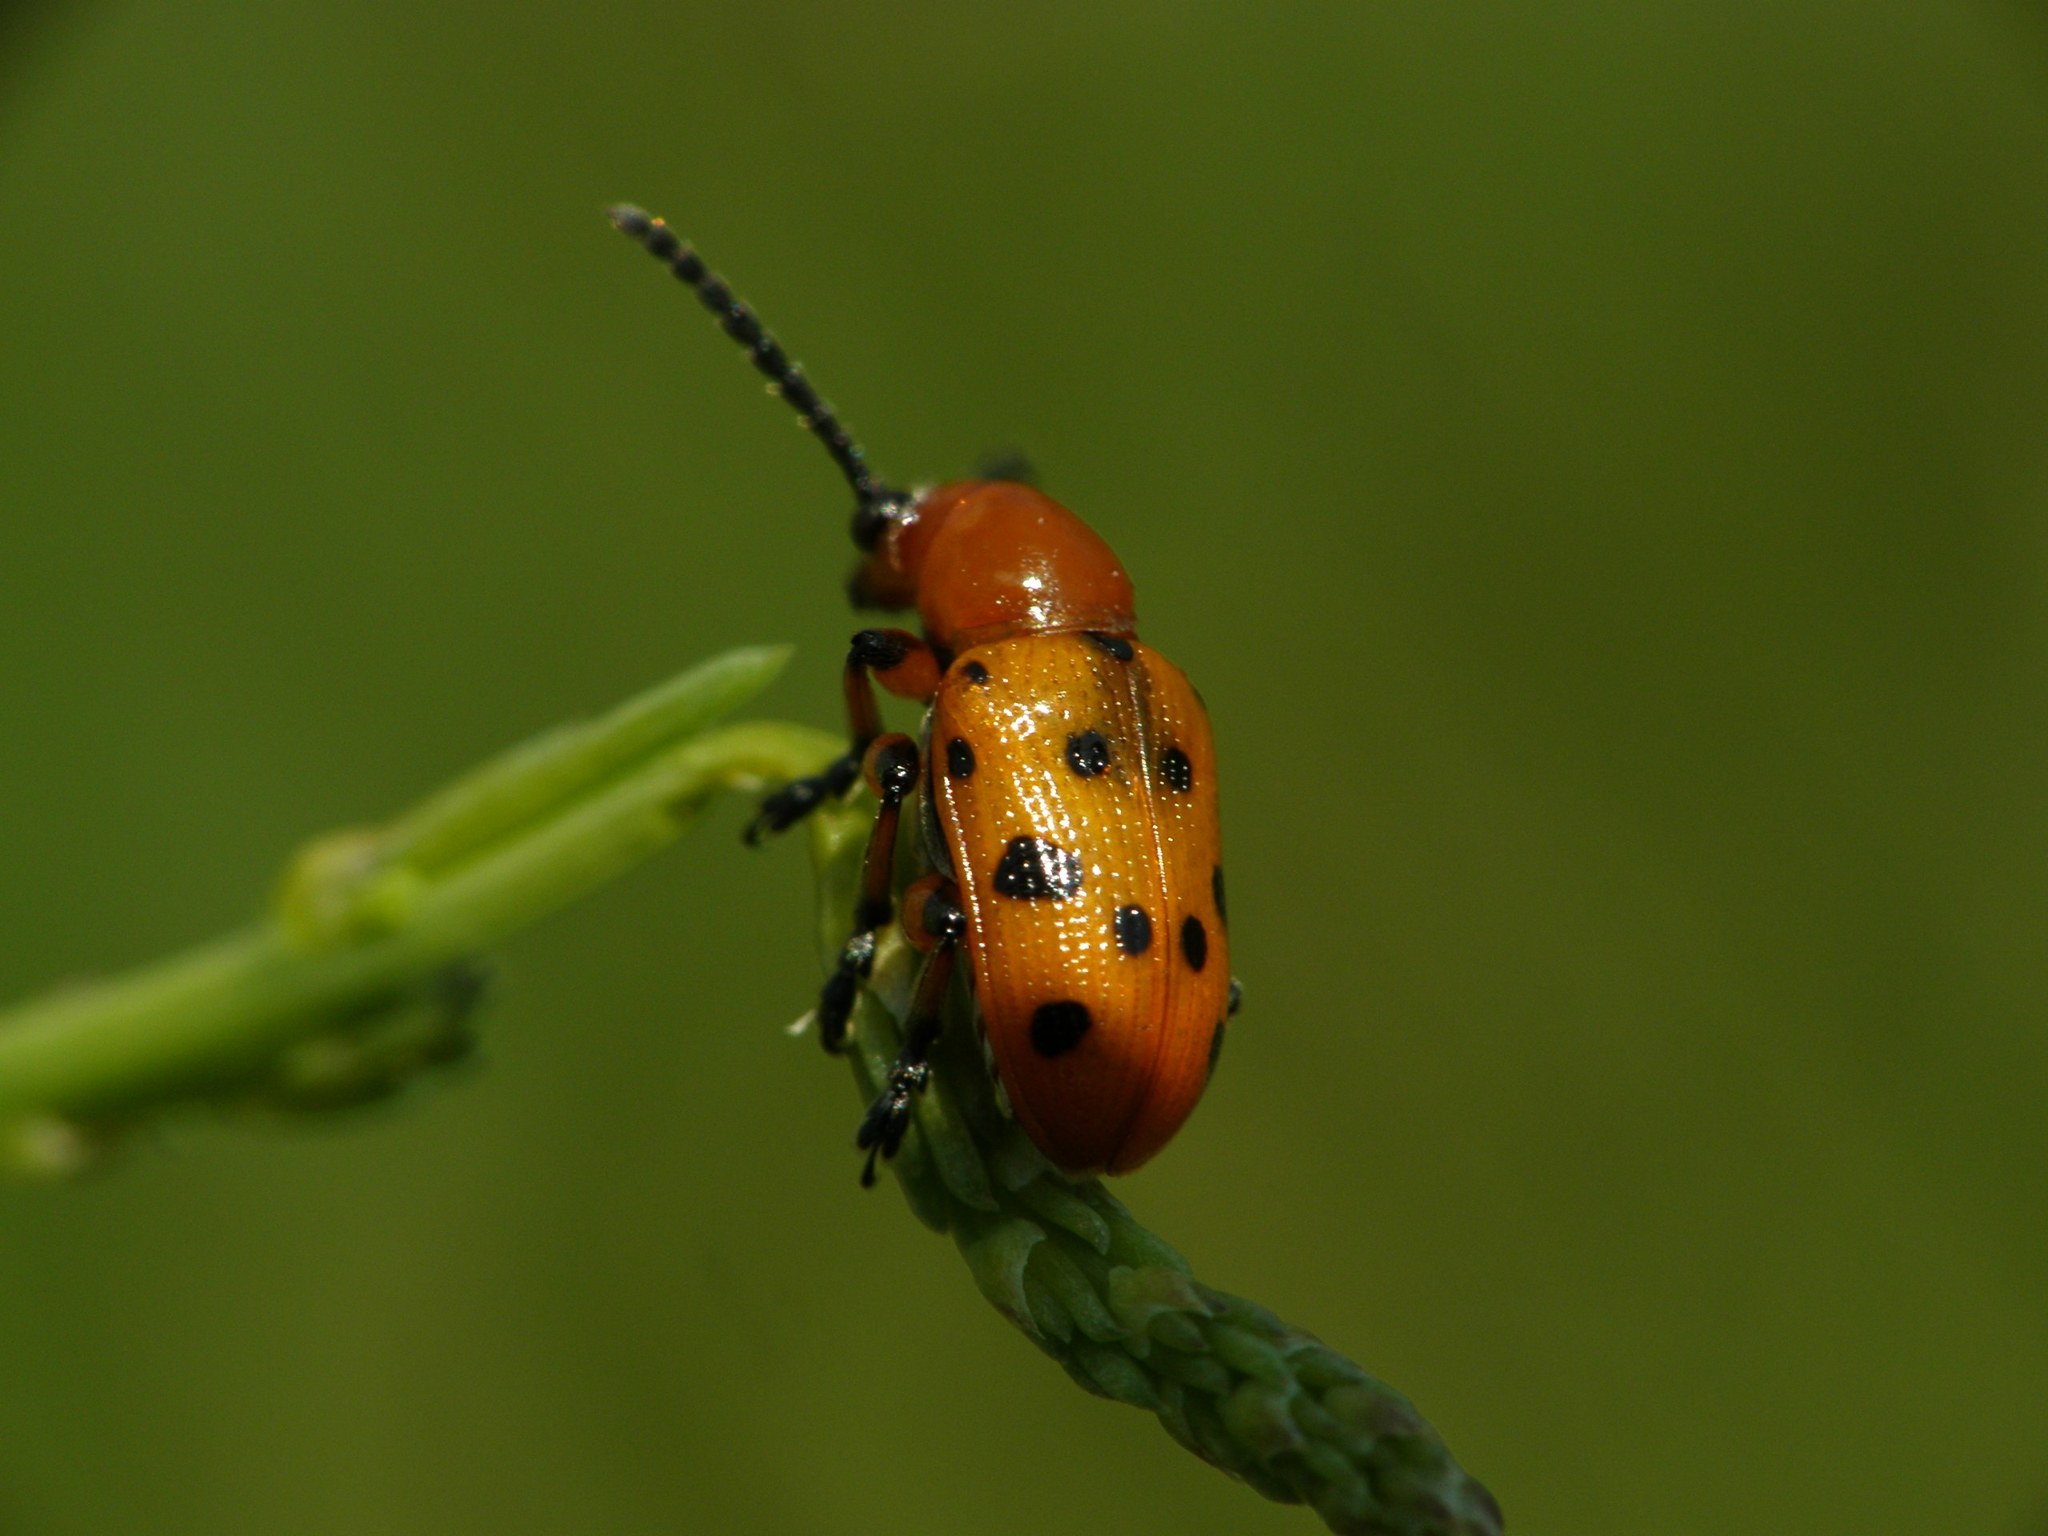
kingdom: Animalia
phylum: Arthropoda
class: Insecta
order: Coleoptera
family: Chrysomelidae
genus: Crioceris
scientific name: Crioceris duodecimpunctata
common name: Twelve-spotted asparagus beetle
